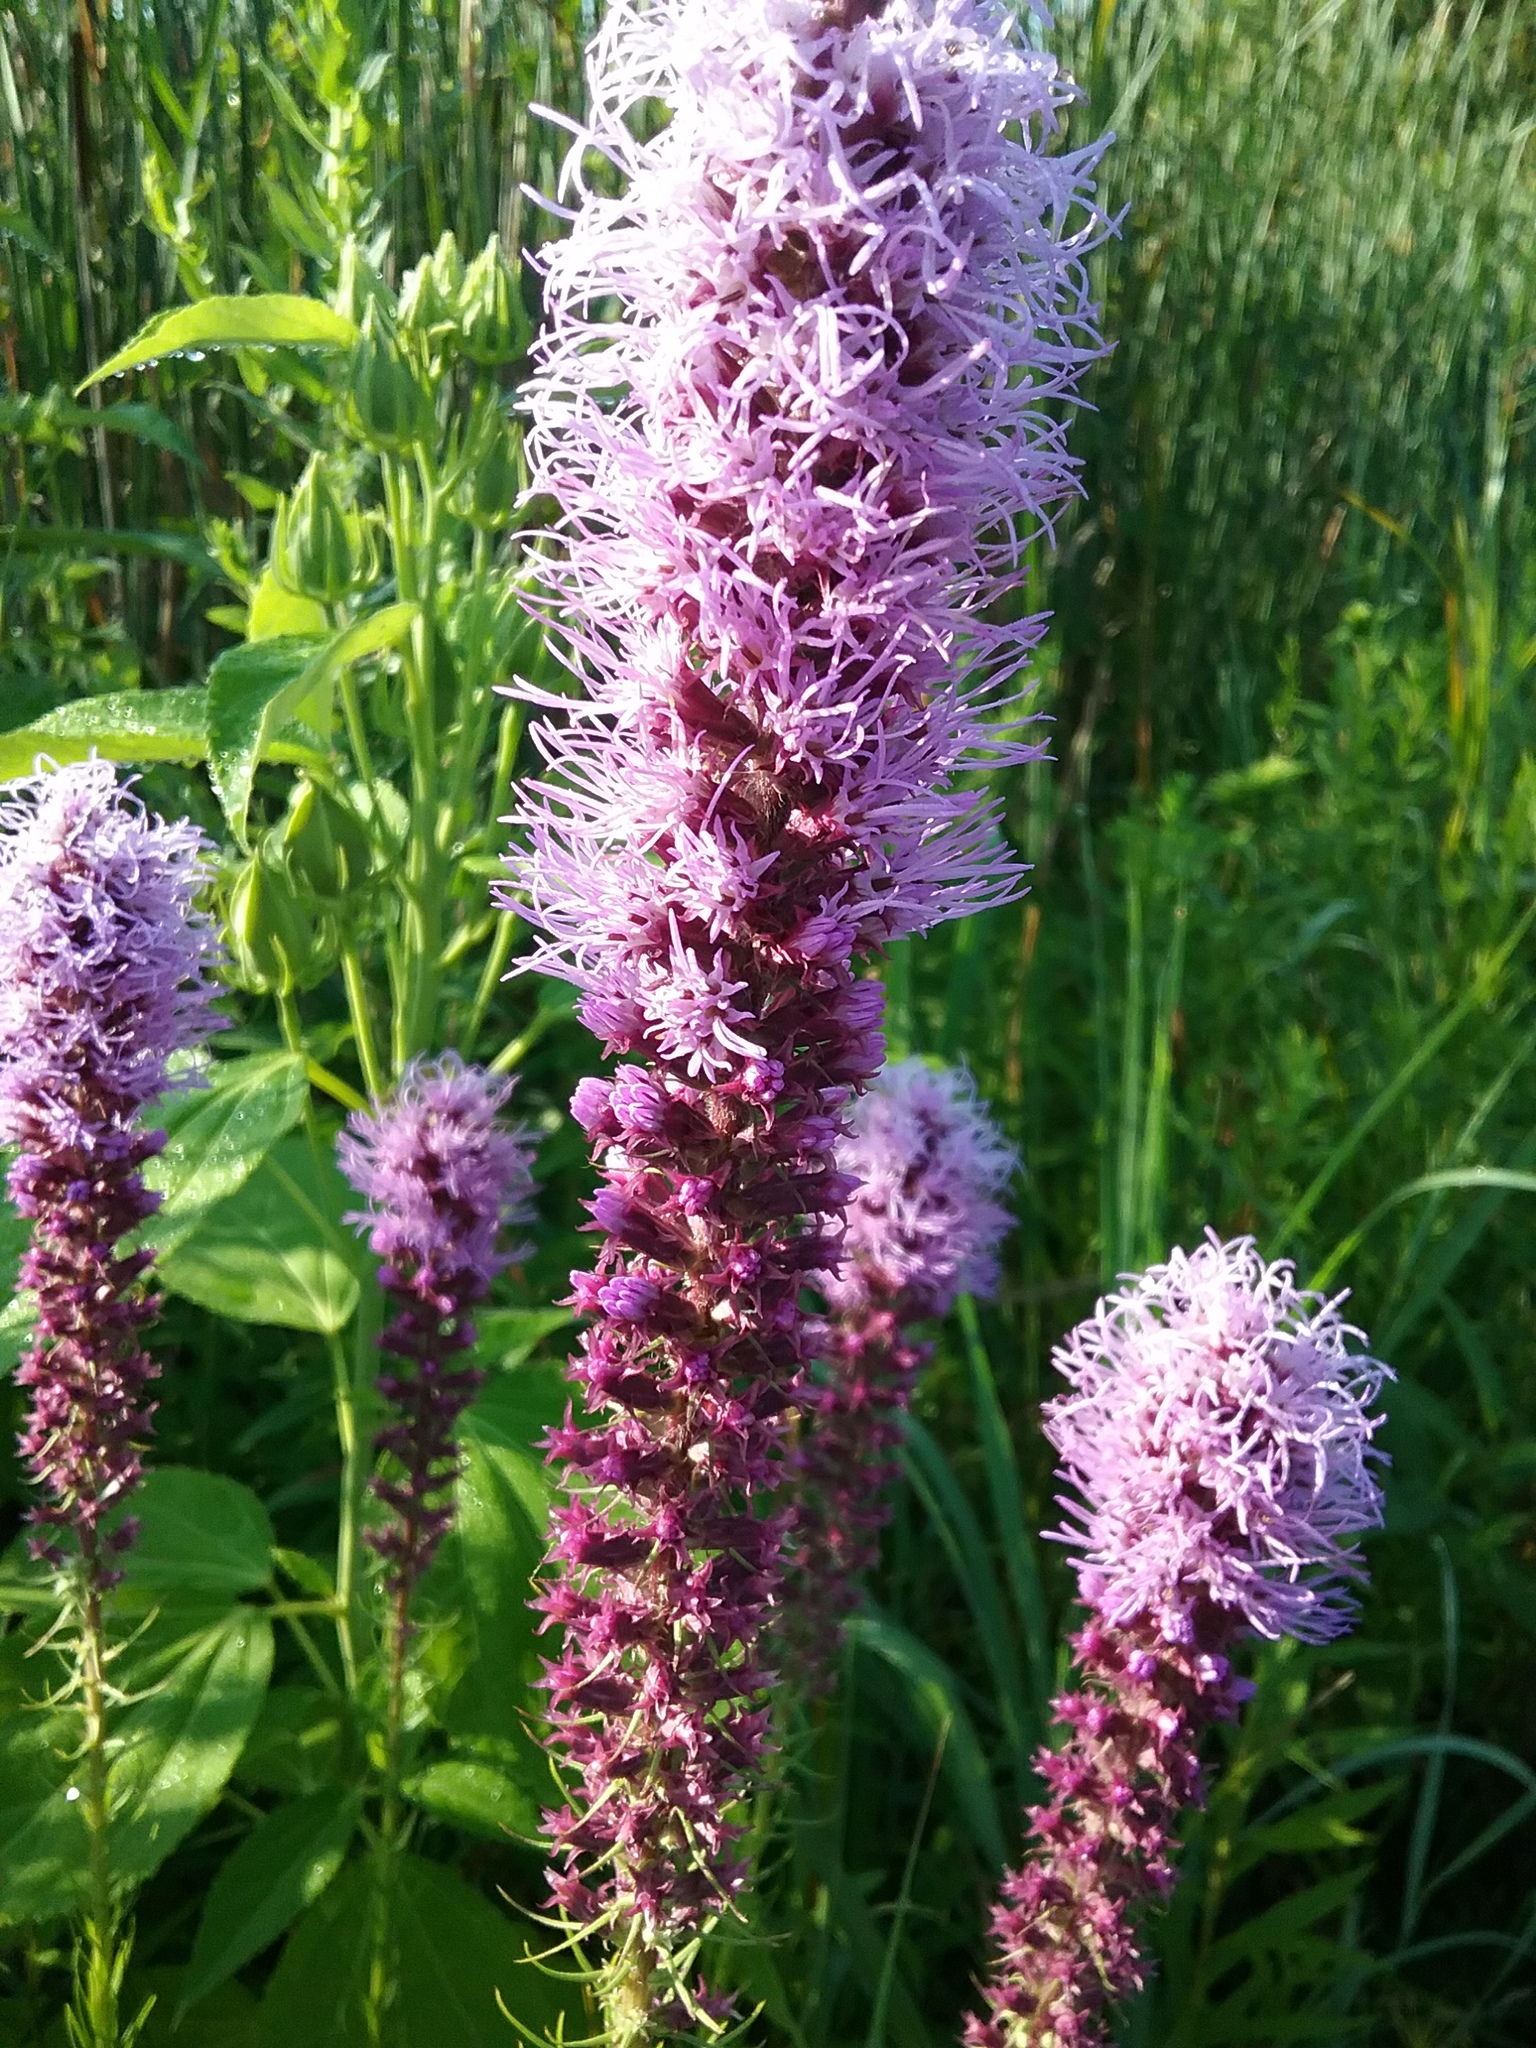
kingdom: Plantae
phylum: Tracheophyta
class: Magnoliopsida
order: Asterales
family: Asteraceae
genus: Liatris
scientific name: Liatris pycnostachya
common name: Cattail gayfeather
